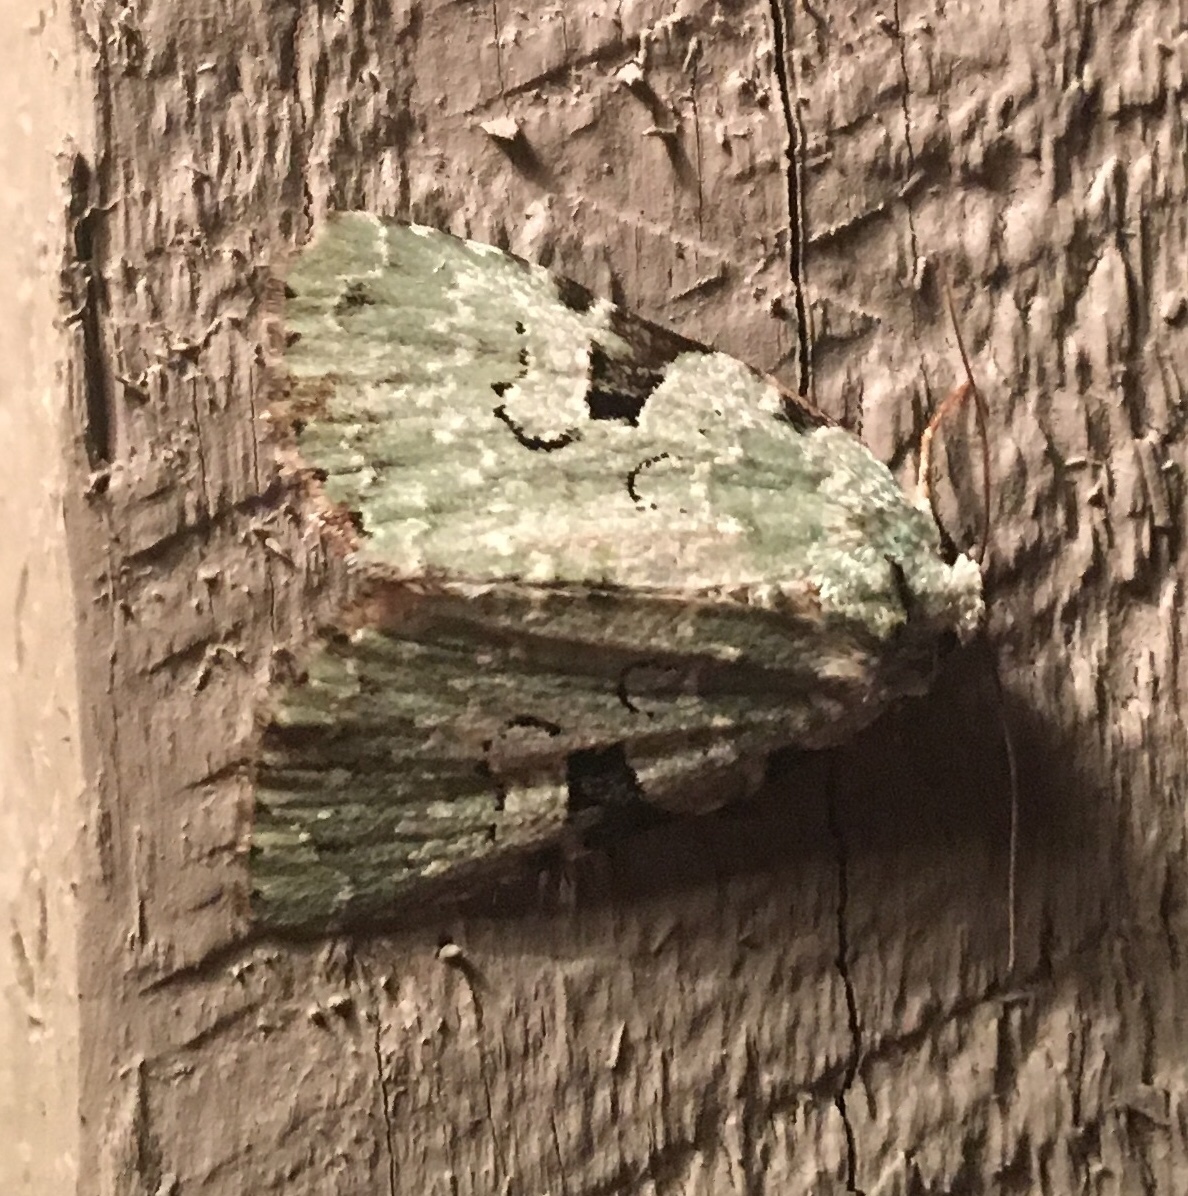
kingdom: Animalia
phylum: Arthropoda
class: Insecta
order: Lepidoptera
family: Noctuidae
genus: Leuconycta
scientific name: Leuconycta diphteroides
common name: Green leuconycta moth
